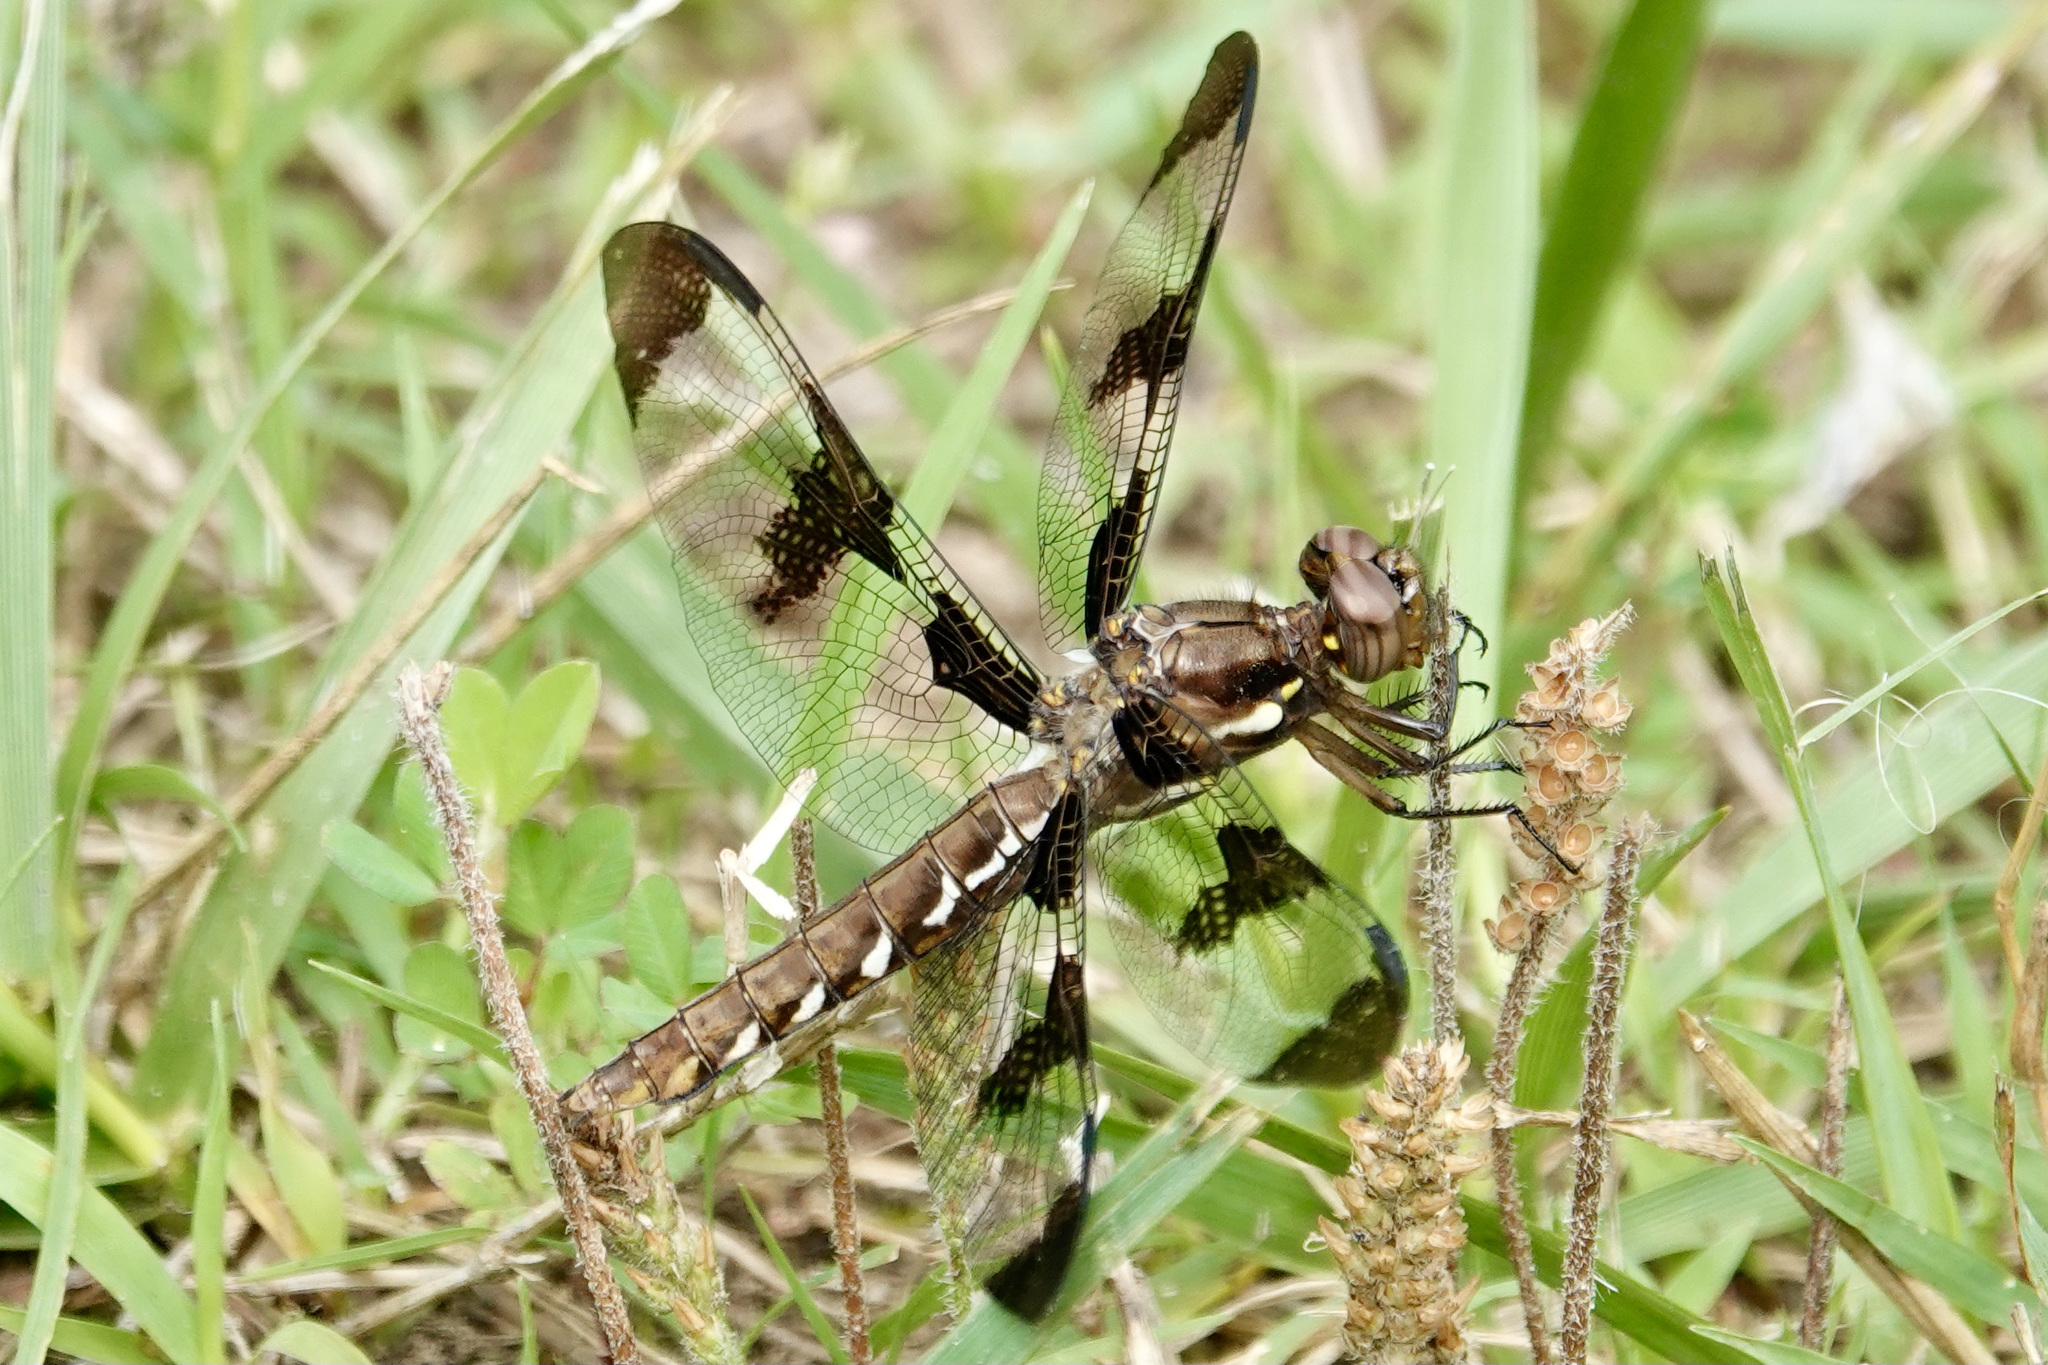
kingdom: Animalia
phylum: Arthropoda
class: Insecta
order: Odonata
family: Libellulidae
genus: Plathemis
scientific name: Plathemis lydia
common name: Common whitetail
